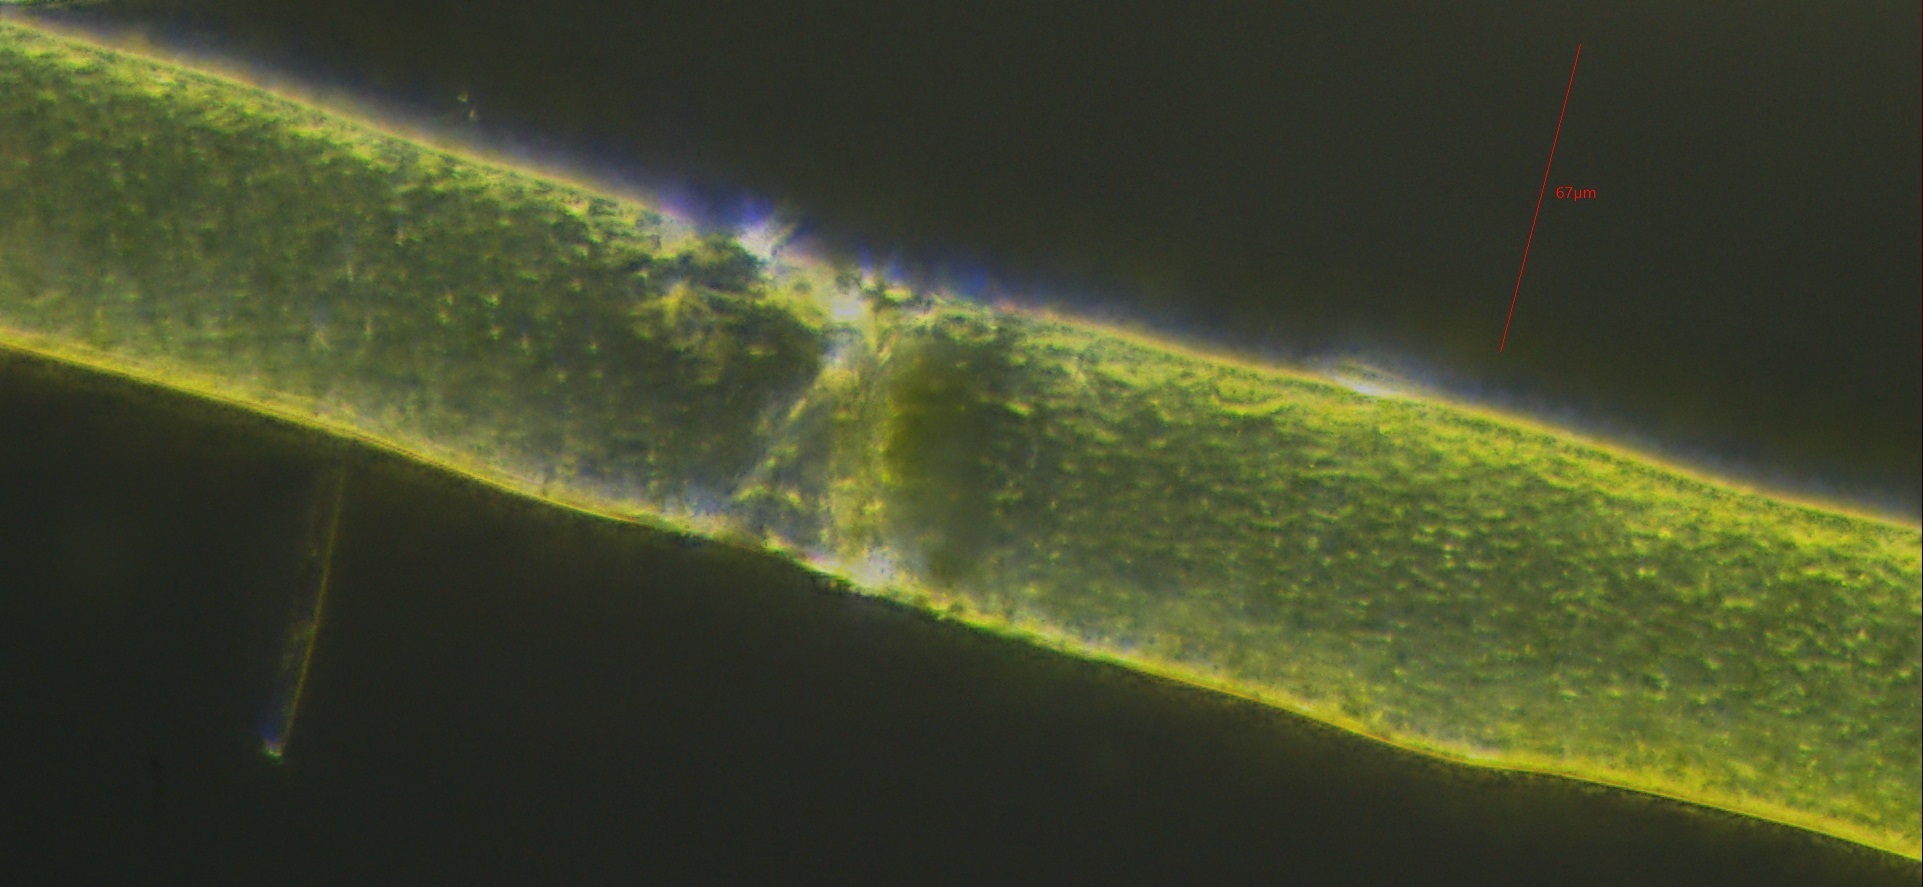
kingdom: Chromista
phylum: Ochrophyta
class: Xanthophyceae
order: Vaucheriales
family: Vaucheriaceae
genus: Vaucheria
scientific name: Vaucheria
